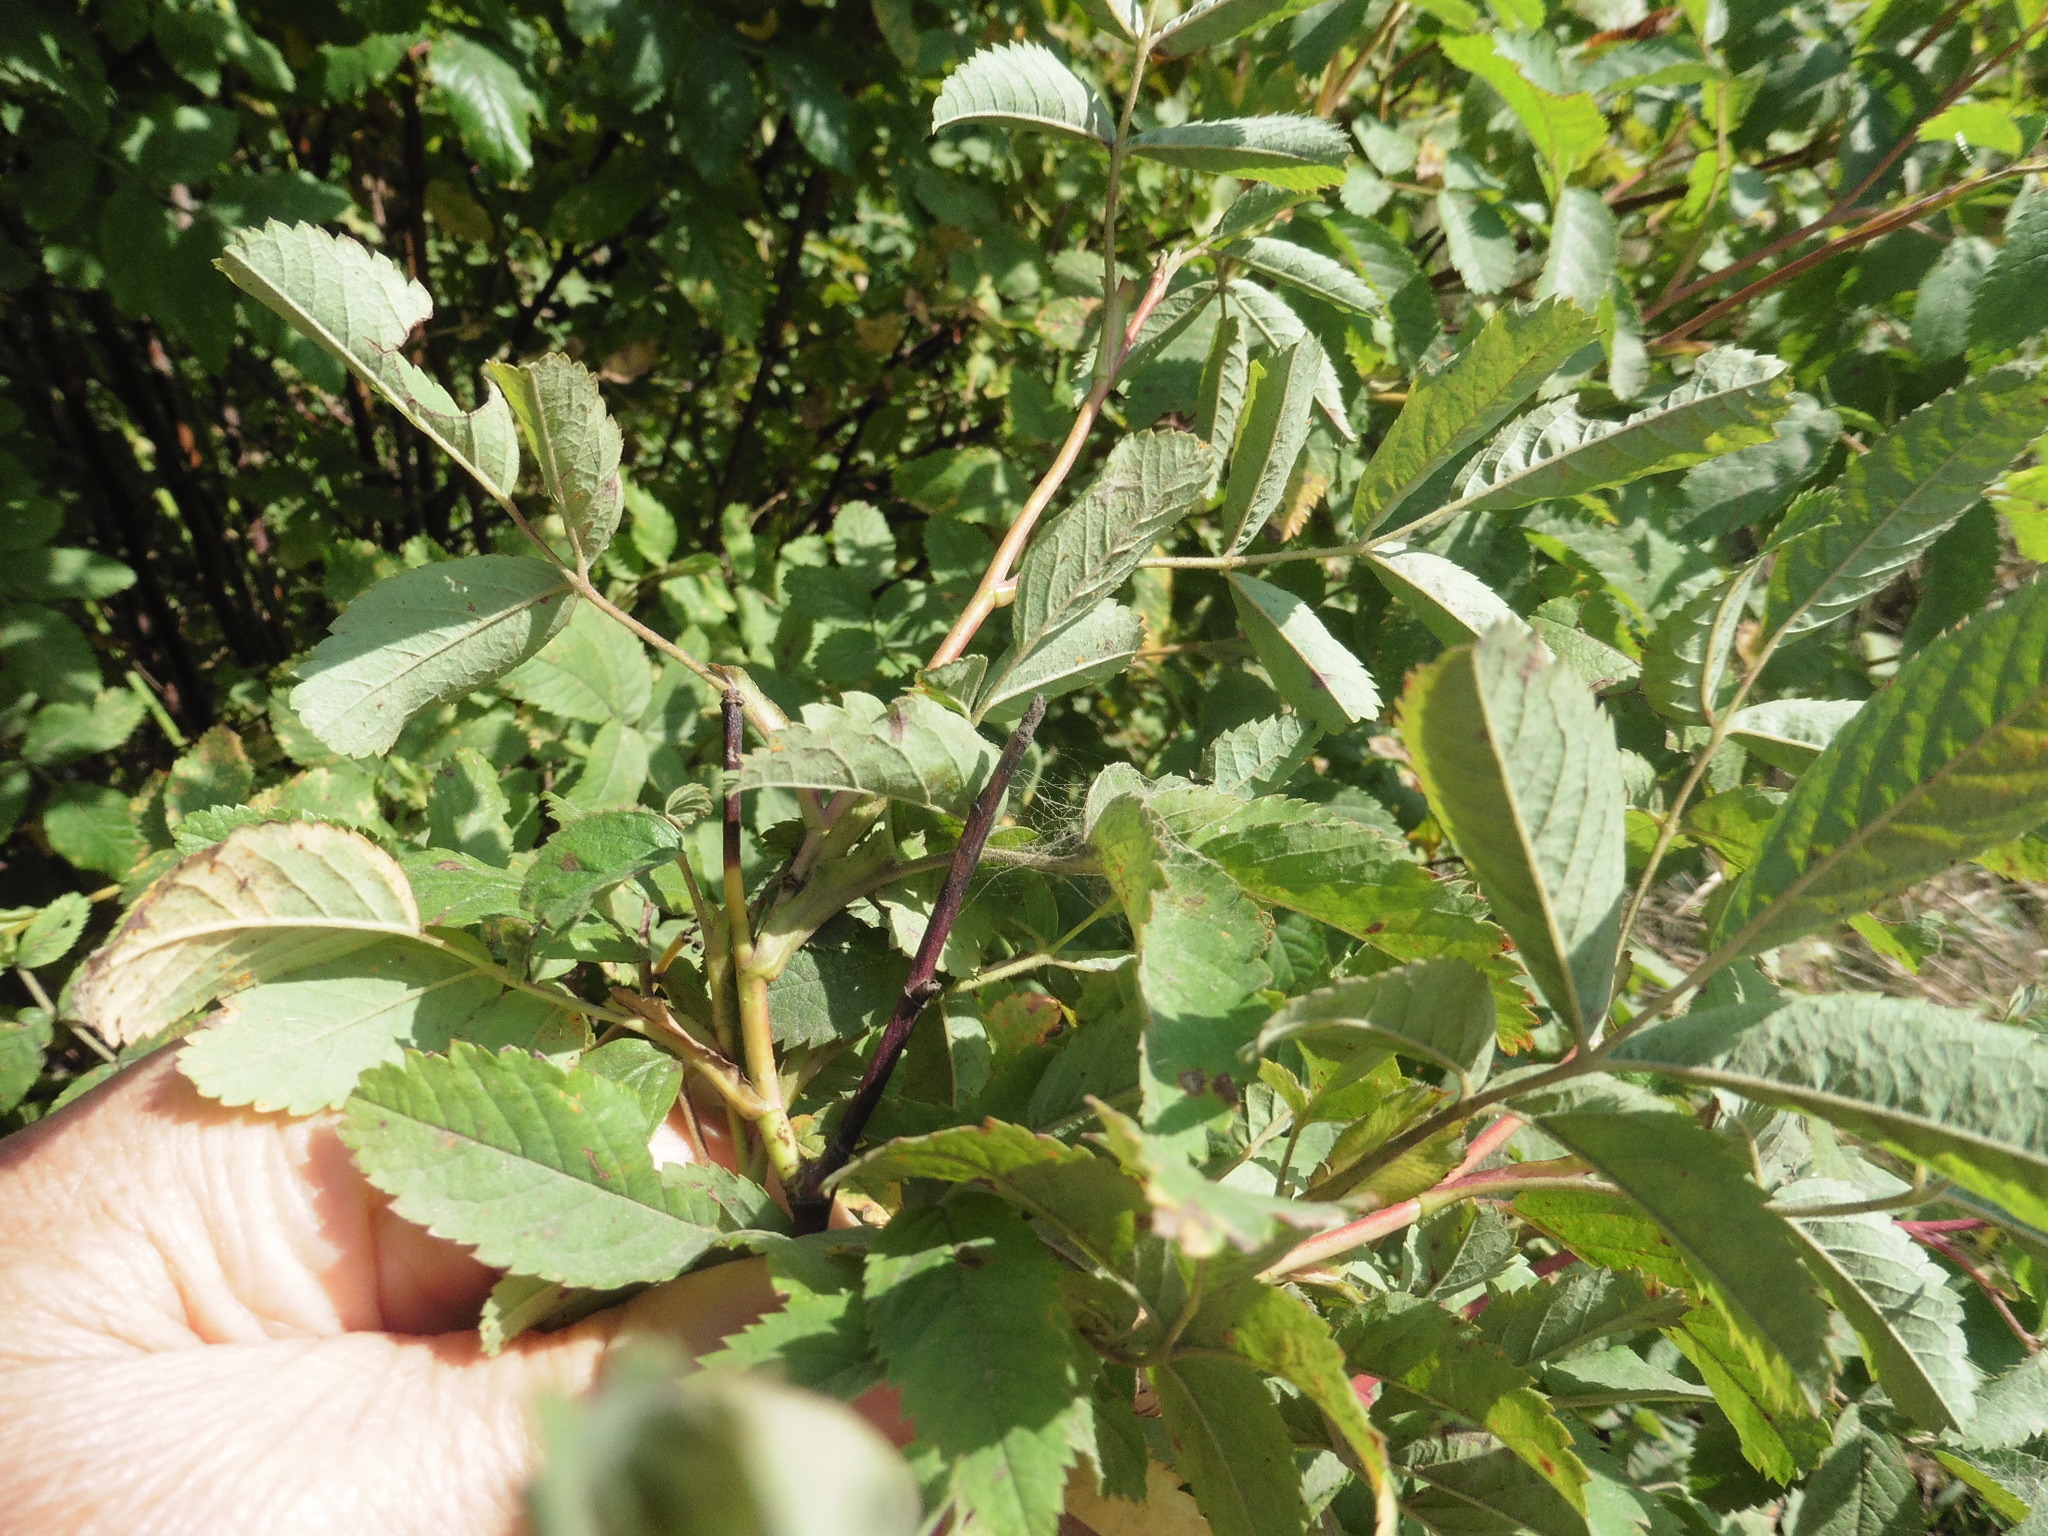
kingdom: Plantae
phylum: Tracheophyta
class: Magnoliopsida
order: Rosales
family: Rosaceae
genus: Rosa
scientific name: Rosa majalis
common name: Cinnamon rose
